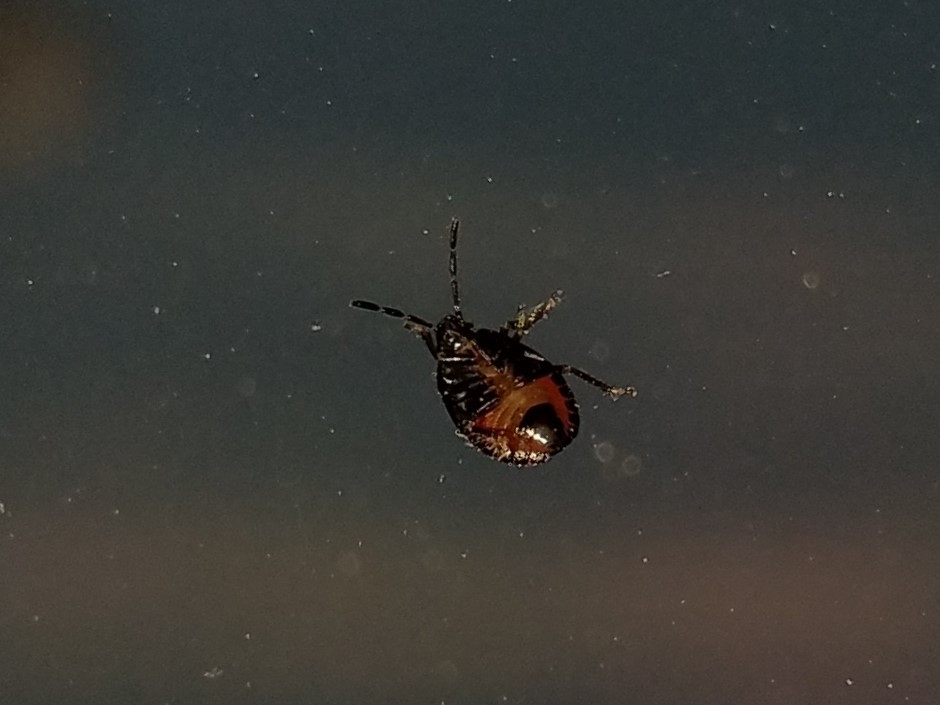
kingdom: Animalia
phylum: Arthropoda
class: Insecta
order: Hemiptera
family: Cydnidae
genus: Sehirus
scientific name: Sehirus cinctus
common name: White-margined burrower bug
